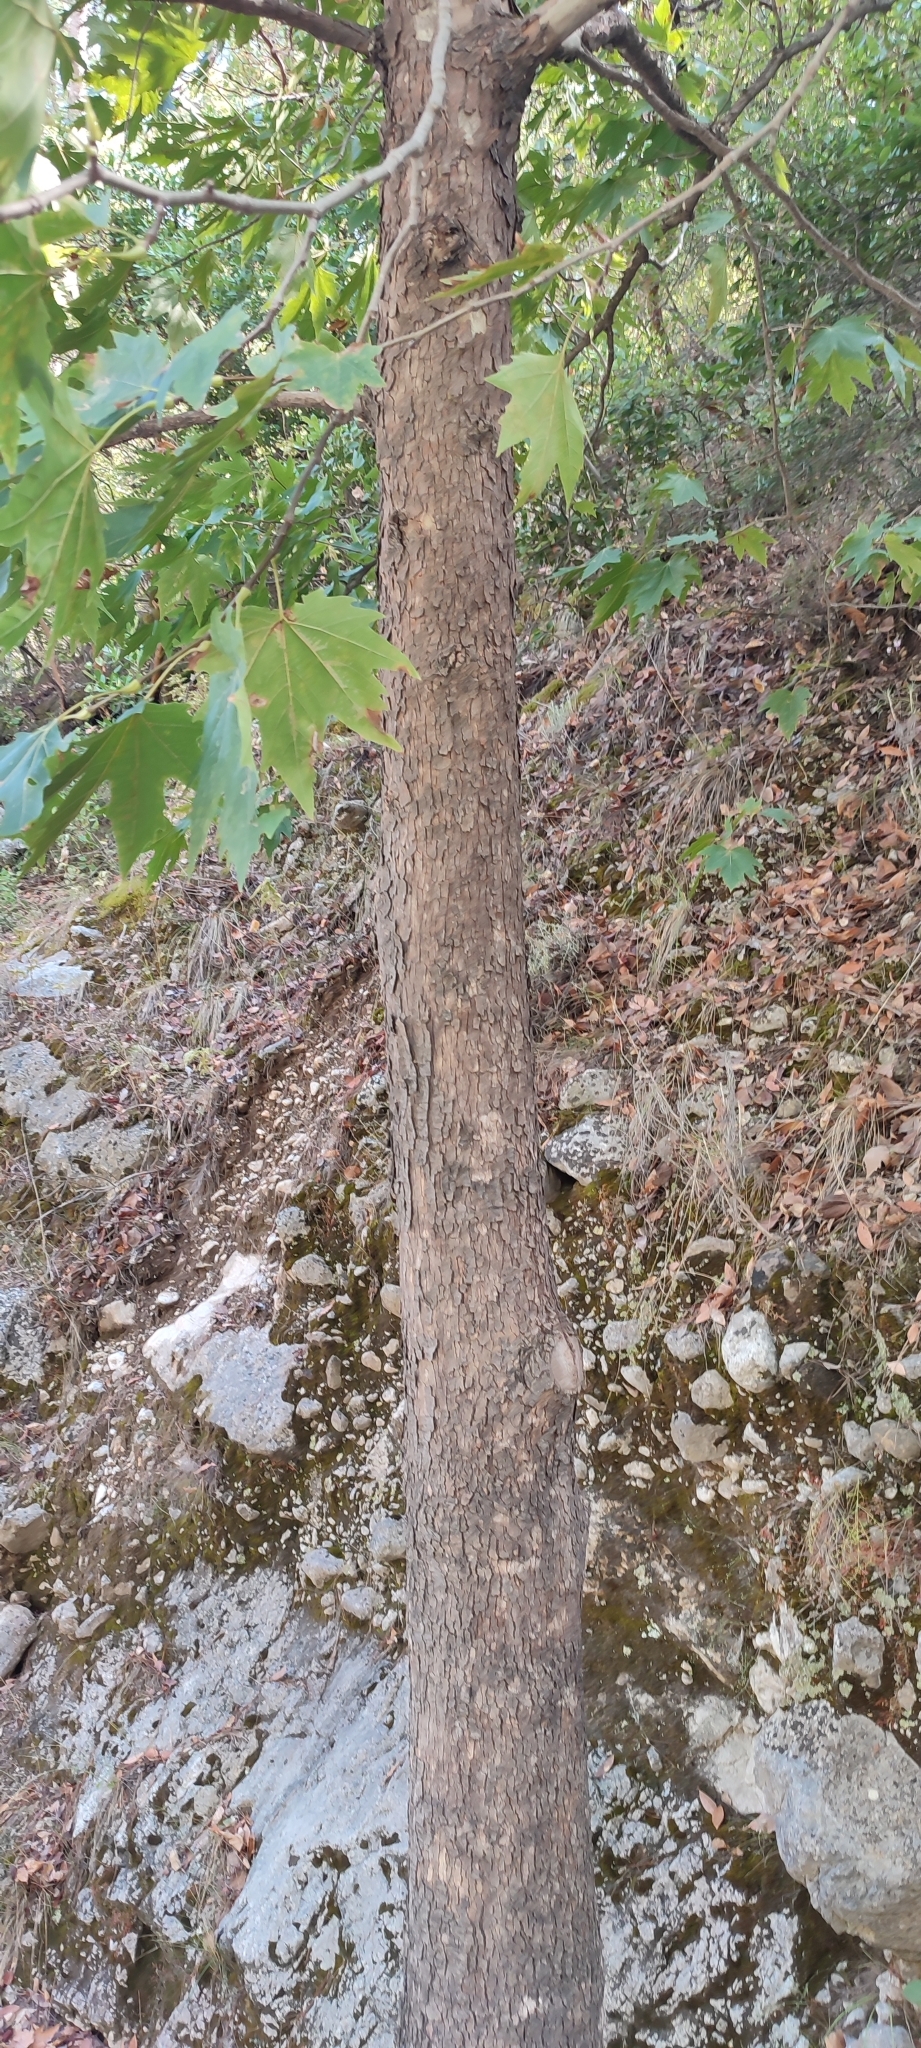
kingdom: Plantae
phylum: Tracheophyta
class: Magnoliopsida
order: Proteales
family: Platanaceae
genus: Platanus
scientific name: Platanus orientalis
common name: Oriental plane
